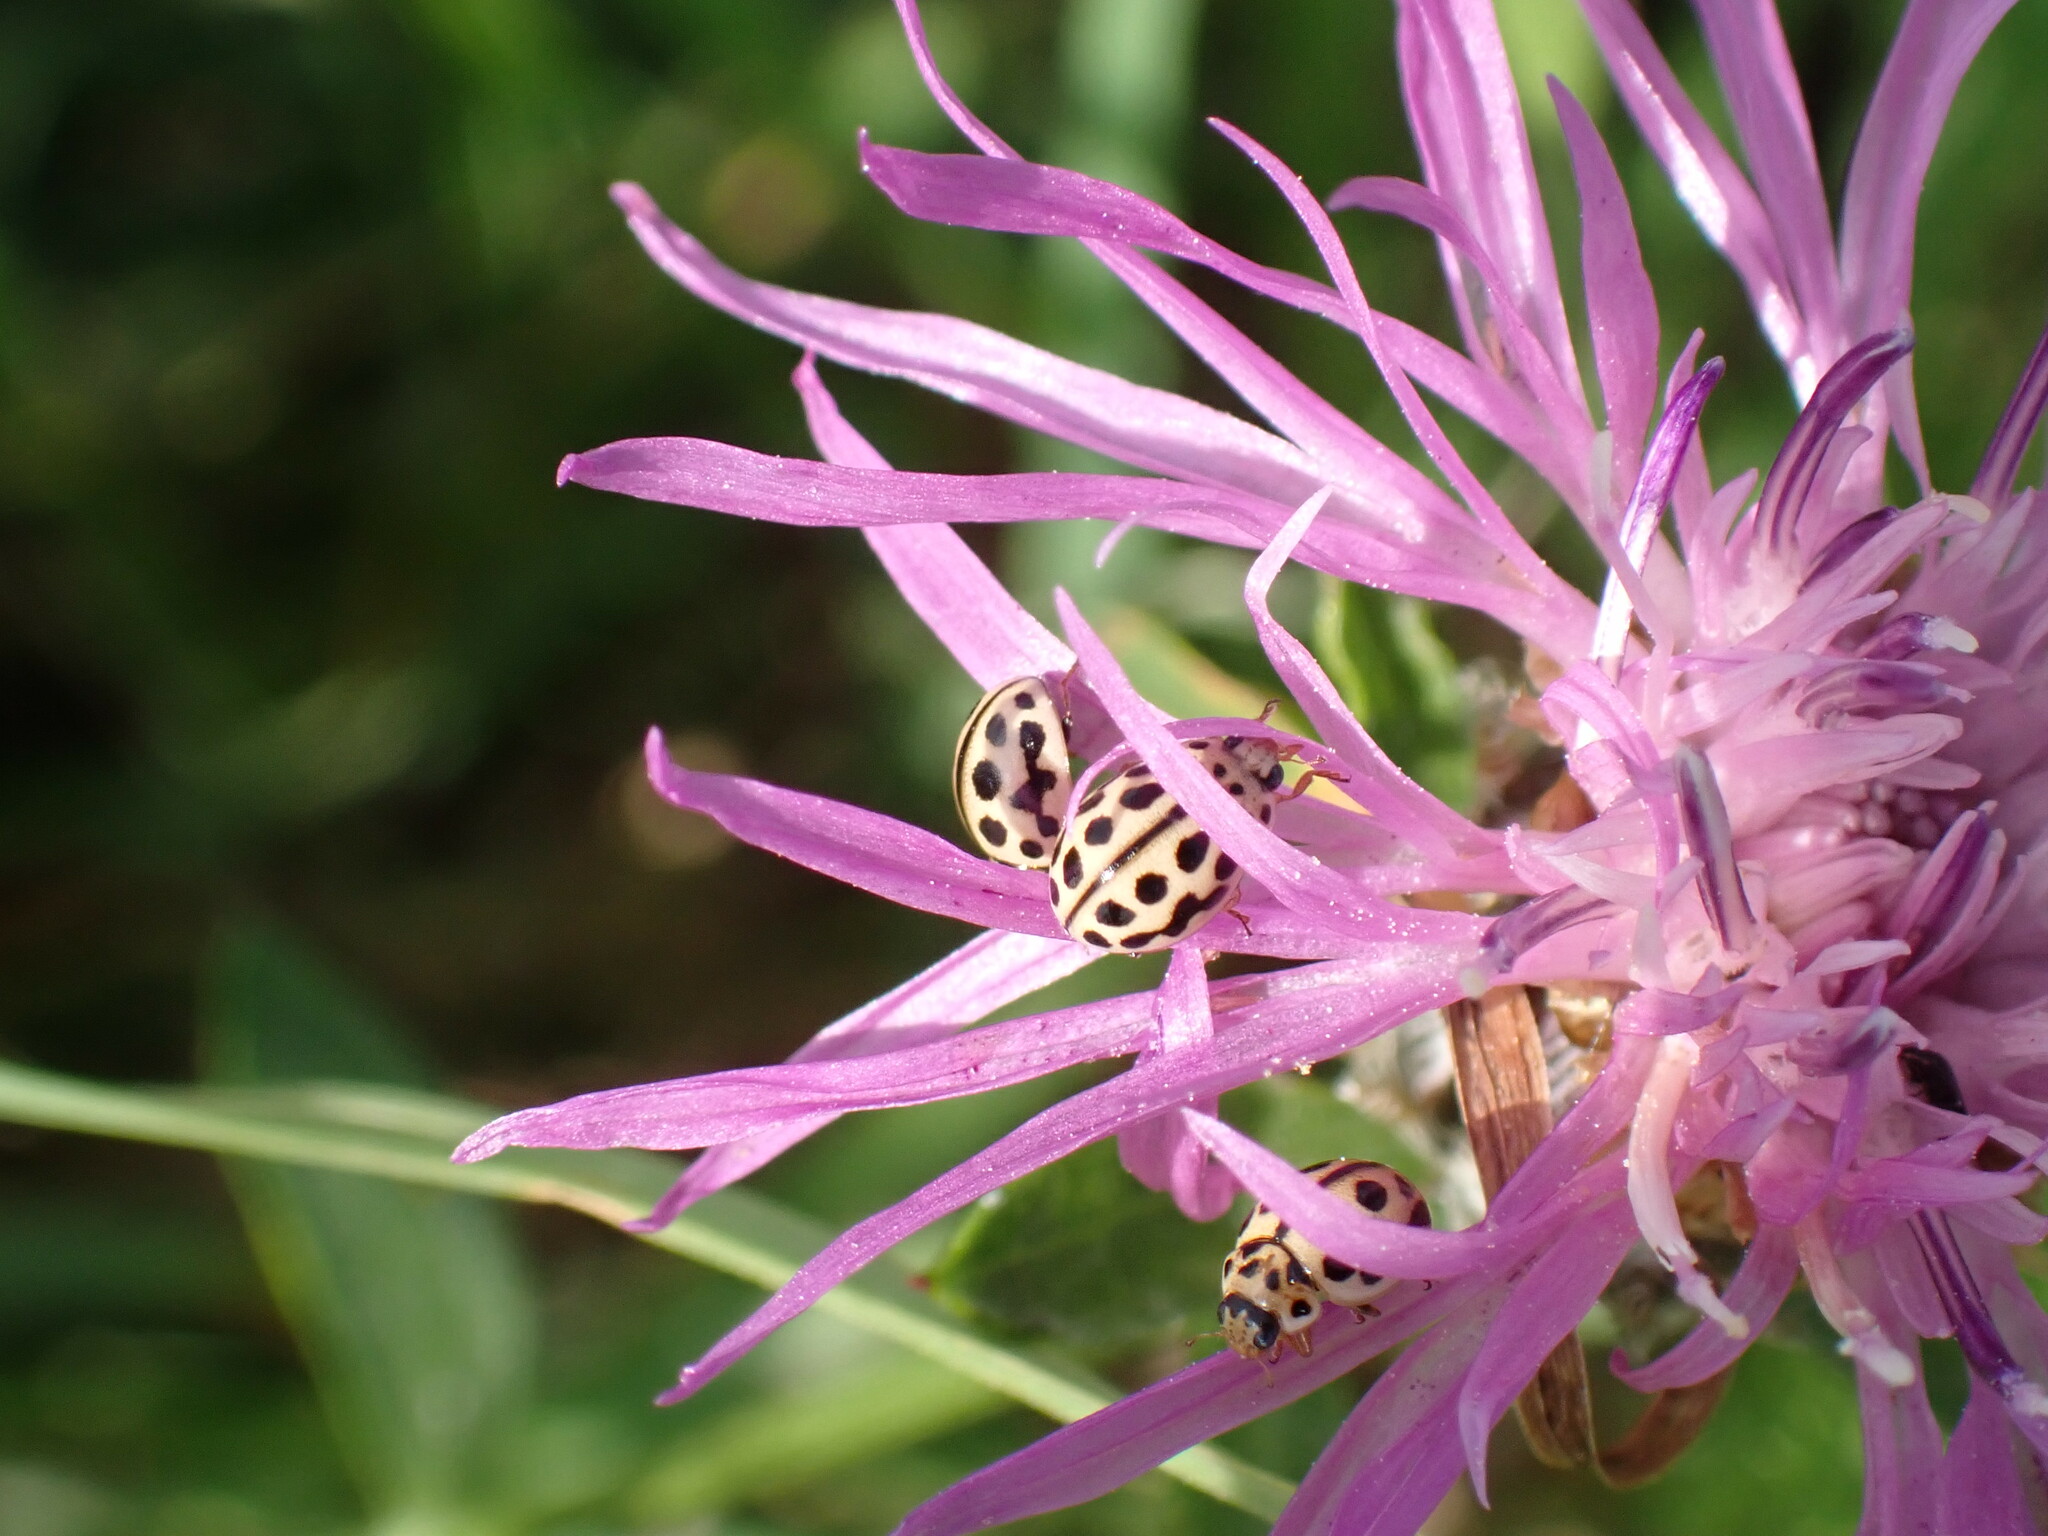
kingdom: Animalia
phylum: Arthropoda
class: Insecta
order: Coleoptera
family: Coccinellidae
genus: Tytthaspis
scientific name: Tytthaspis sedecimpunctata
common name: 16-spot ladybird
